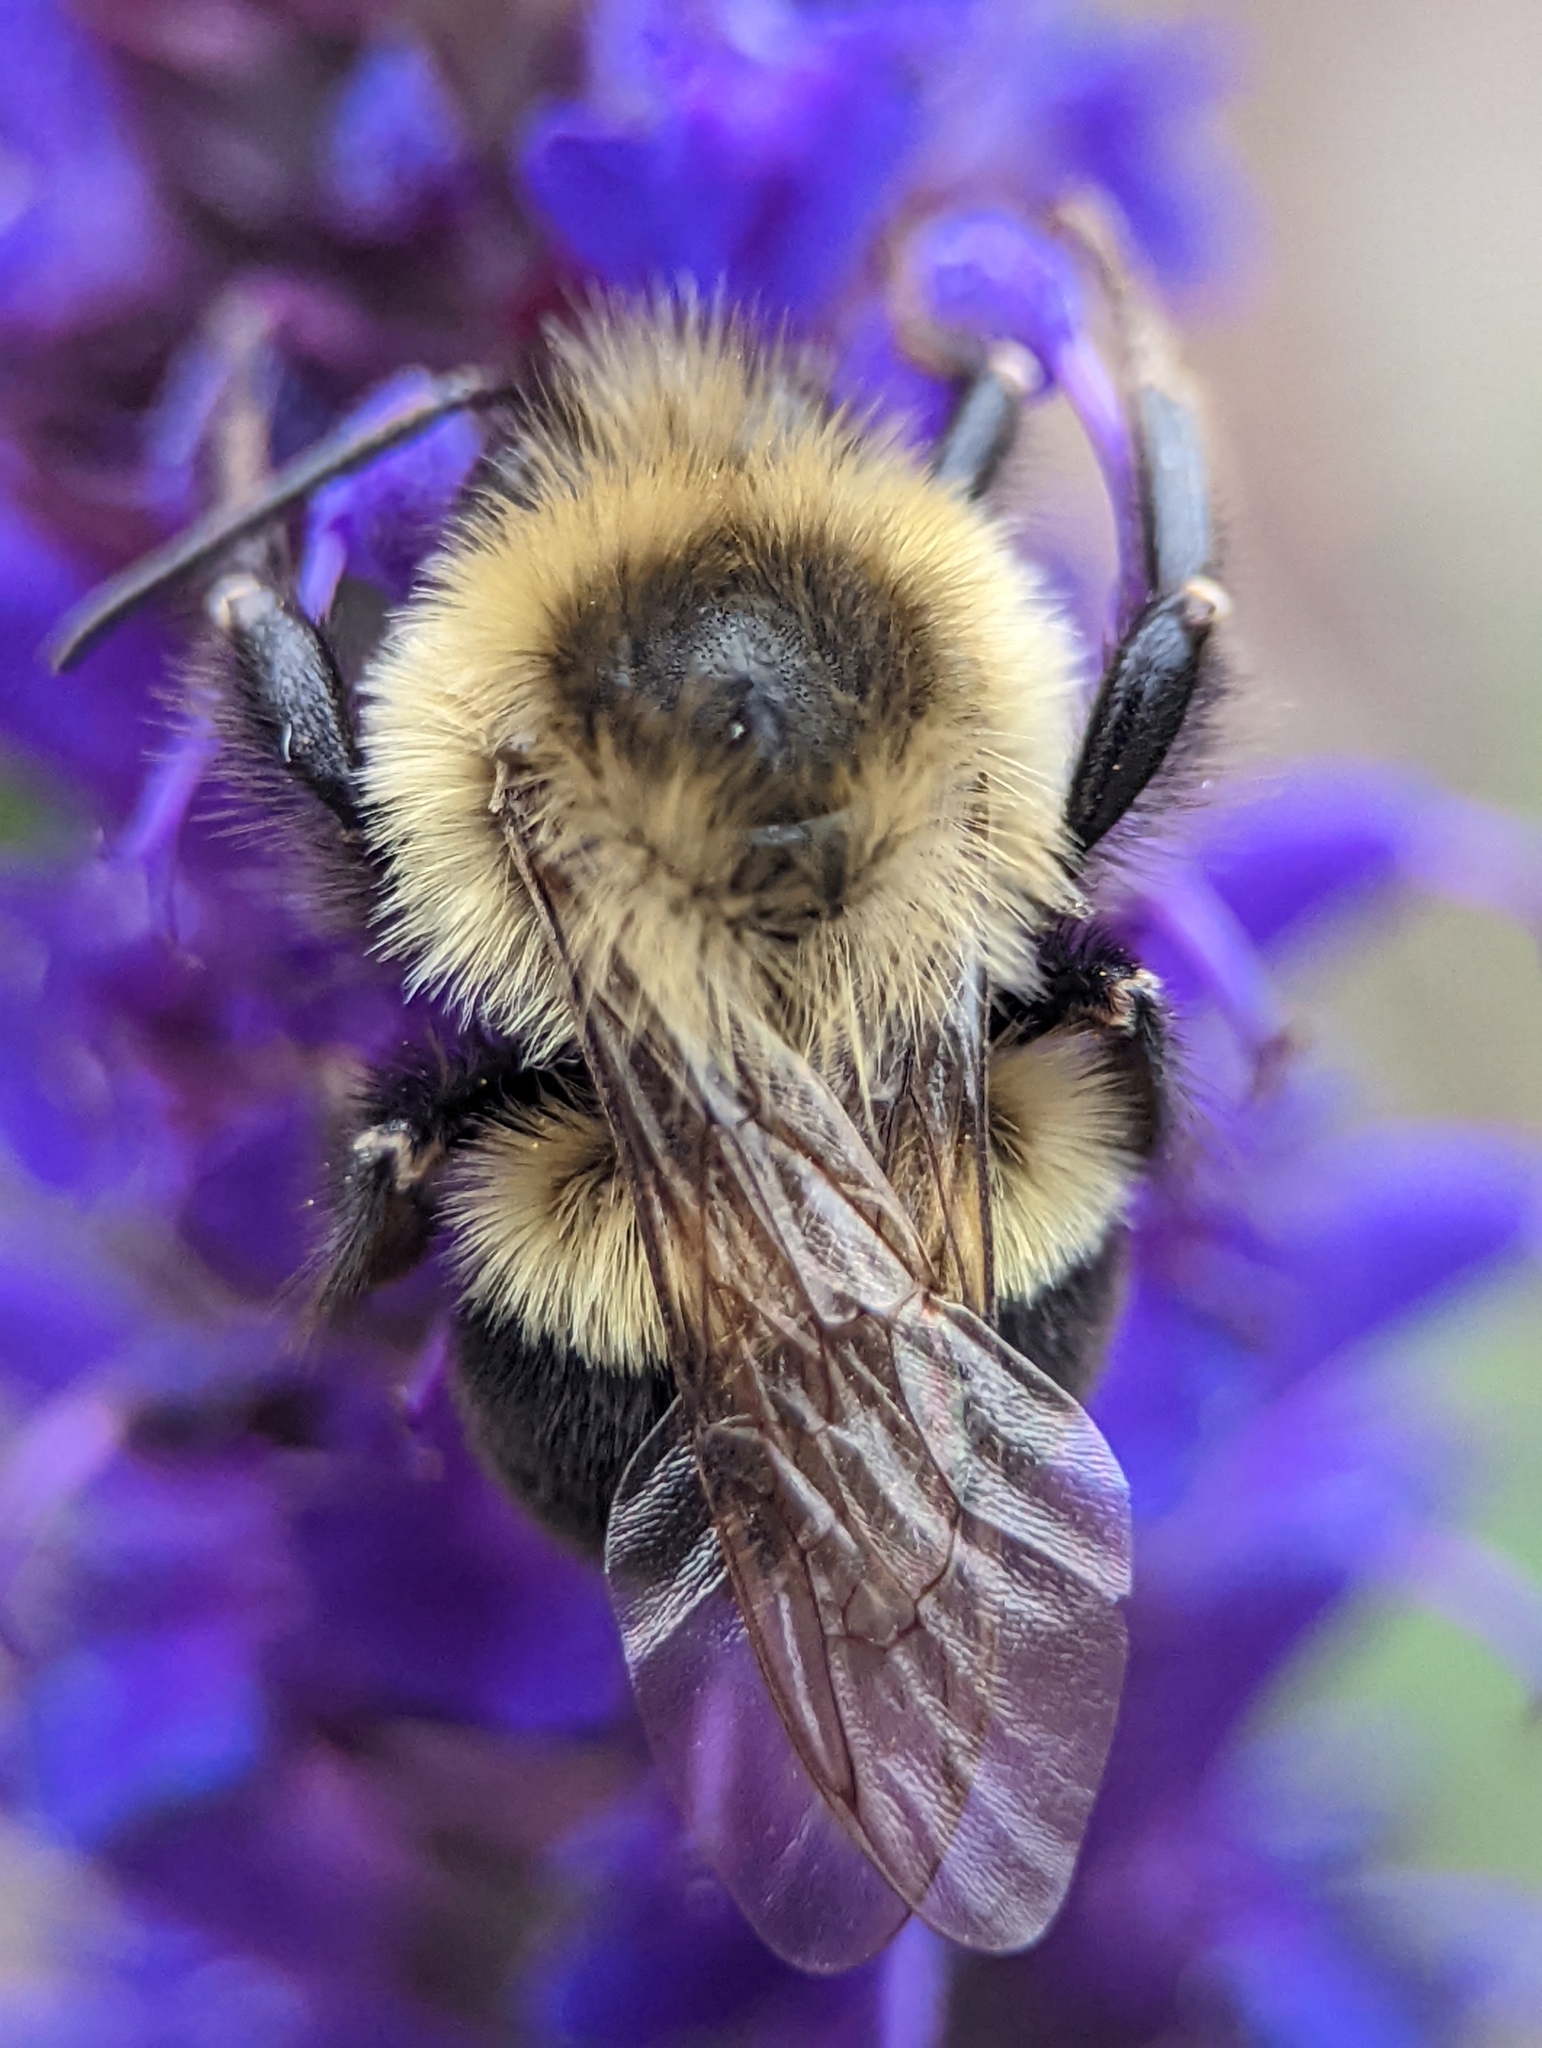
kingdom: Animalia
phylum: Arthropoda
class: Insecta
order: Hymenoptera
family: Apidae
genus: Bombus
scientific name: Bombus impatiens
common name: Common eastern bumble bee
